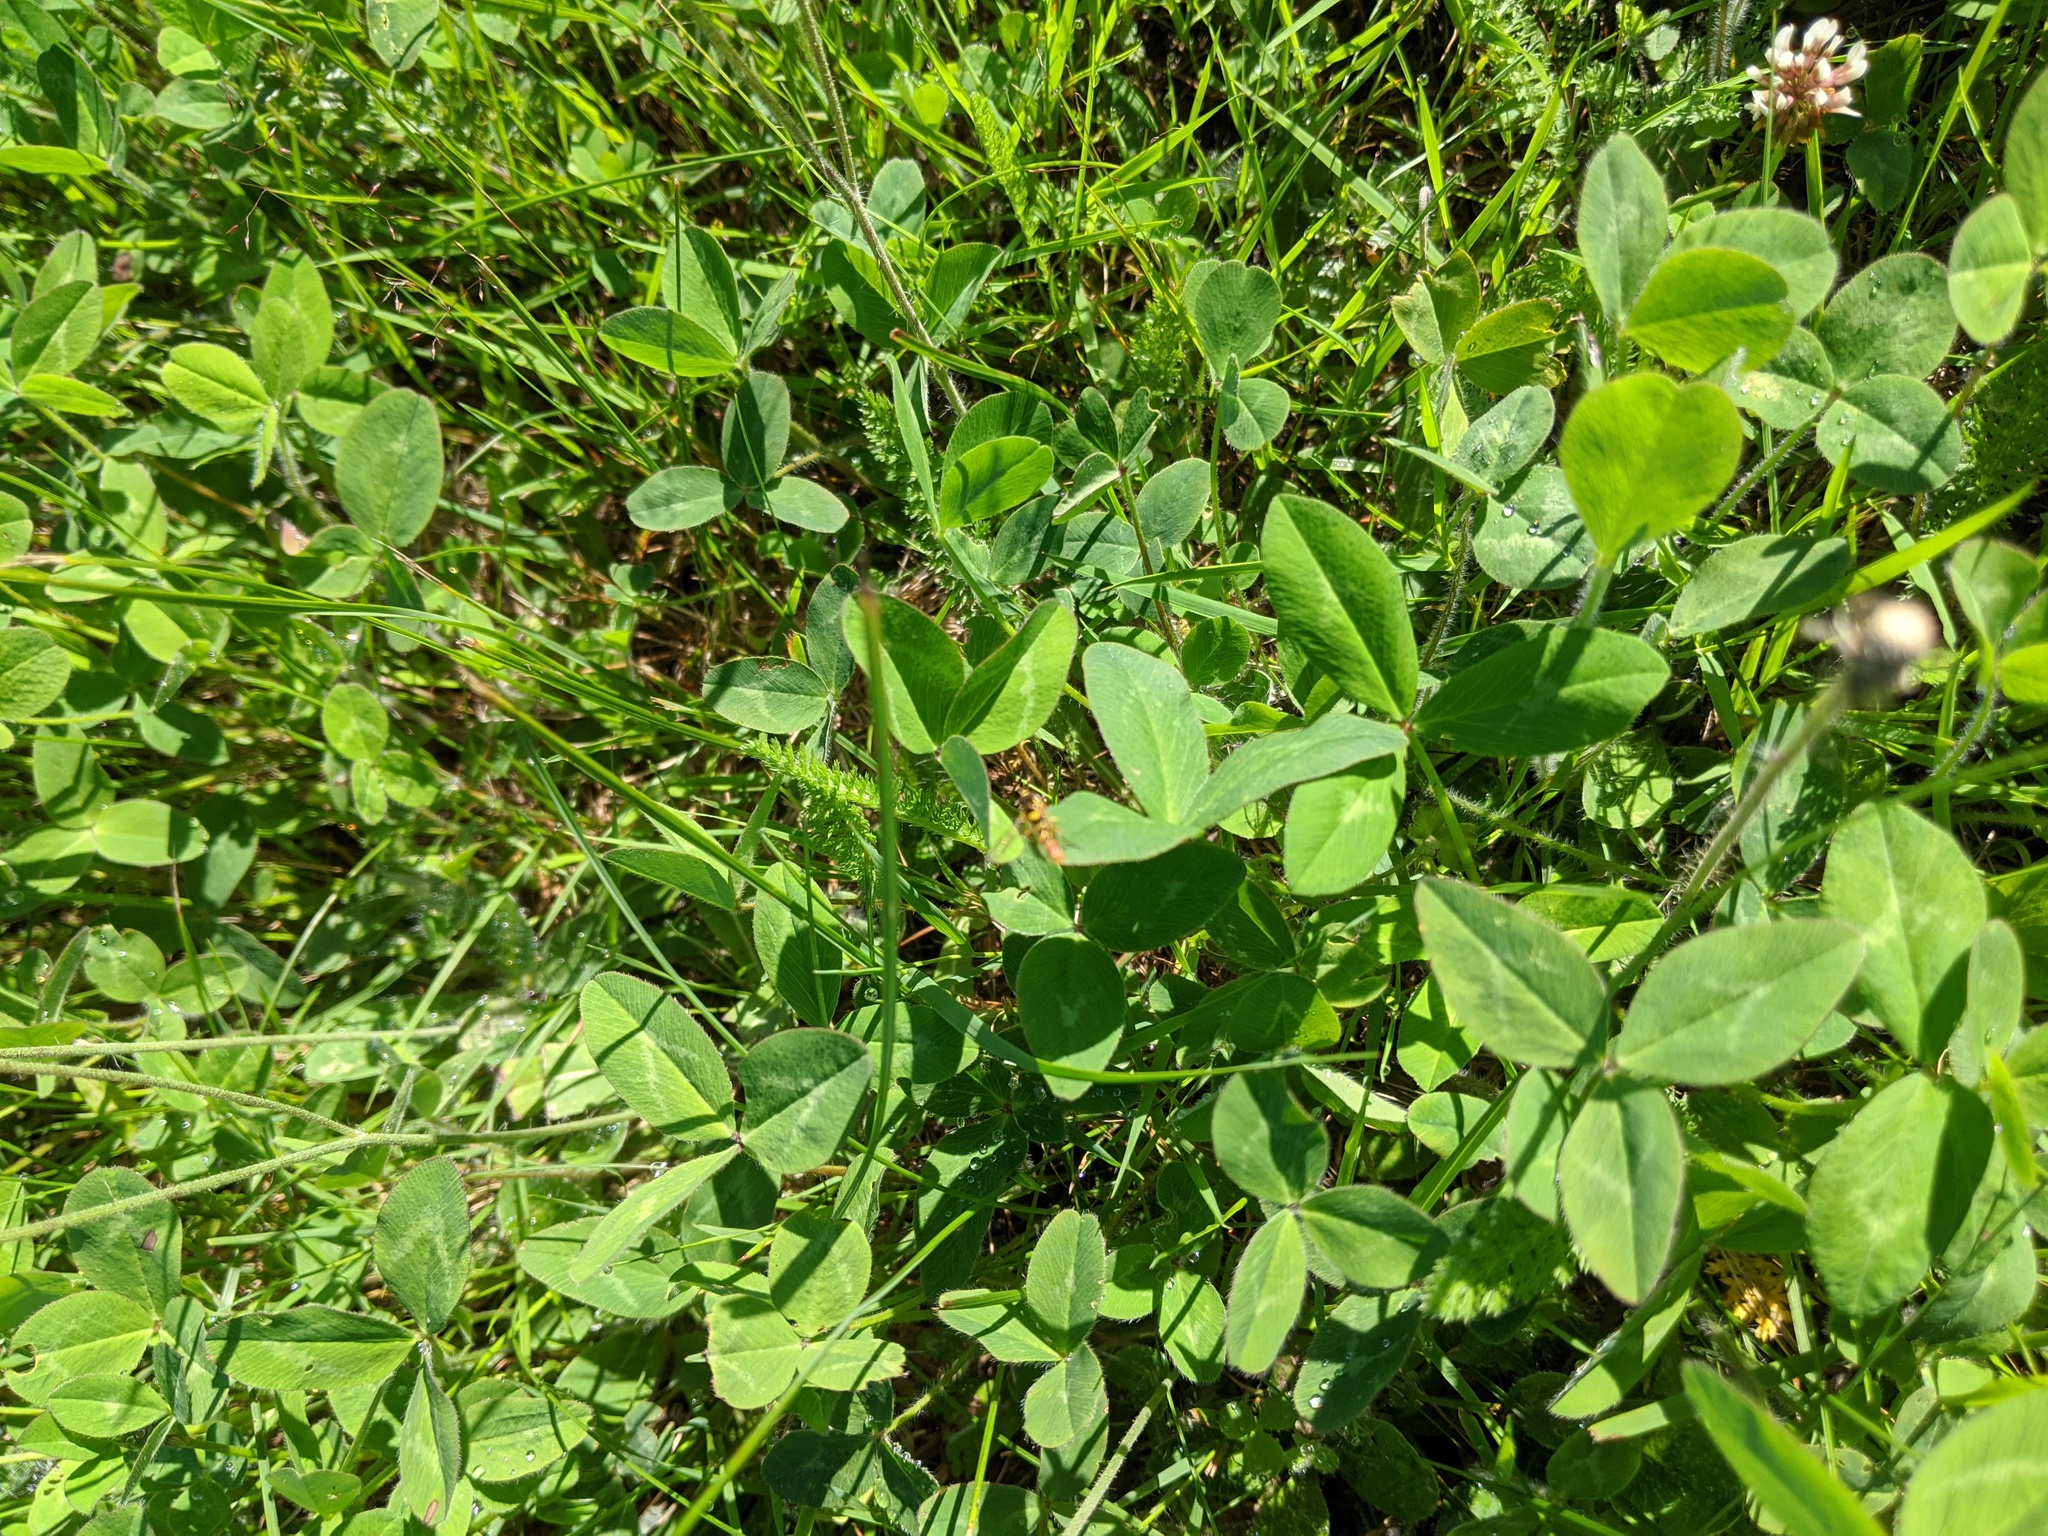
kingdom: Plantae
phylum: Tracheophyta
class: Magnoliopsida
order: Fabales
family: Fabaceae
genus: Trifolium
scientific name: Trifolium pratense
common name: Red clover
